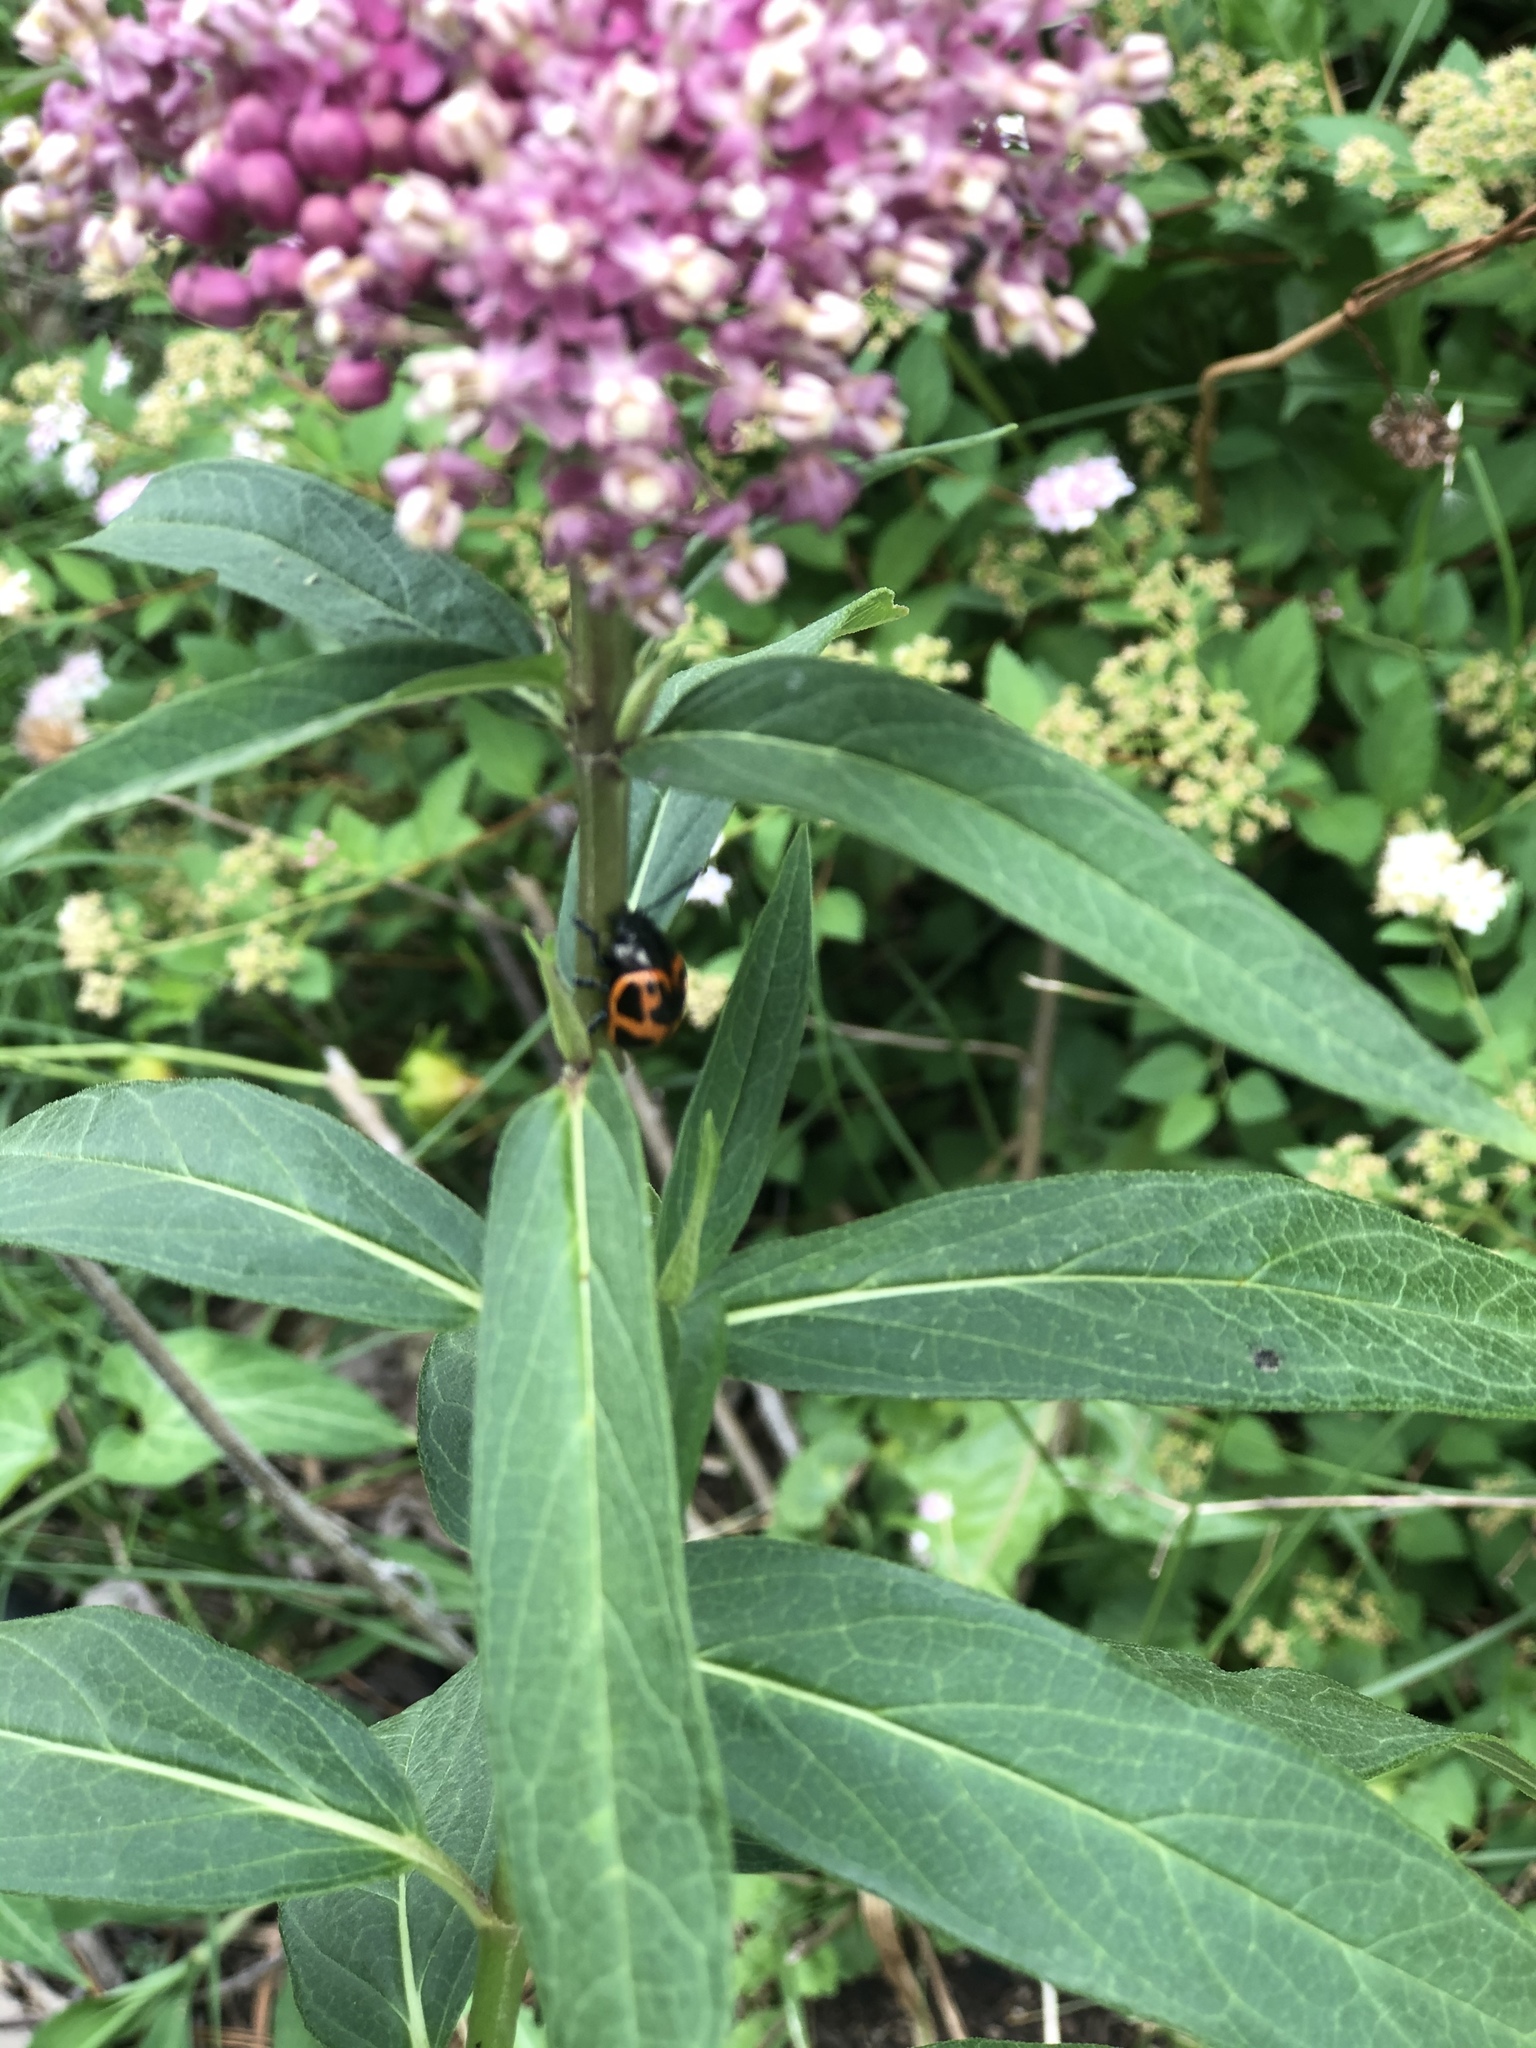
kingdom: Animalia
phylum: Arthropoda
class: Insecta
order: Coleoptera
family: Chrysomelidae
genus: Labidomera
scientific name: Labidomera clivicollis
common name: Swamp milkweed leaf beetle
